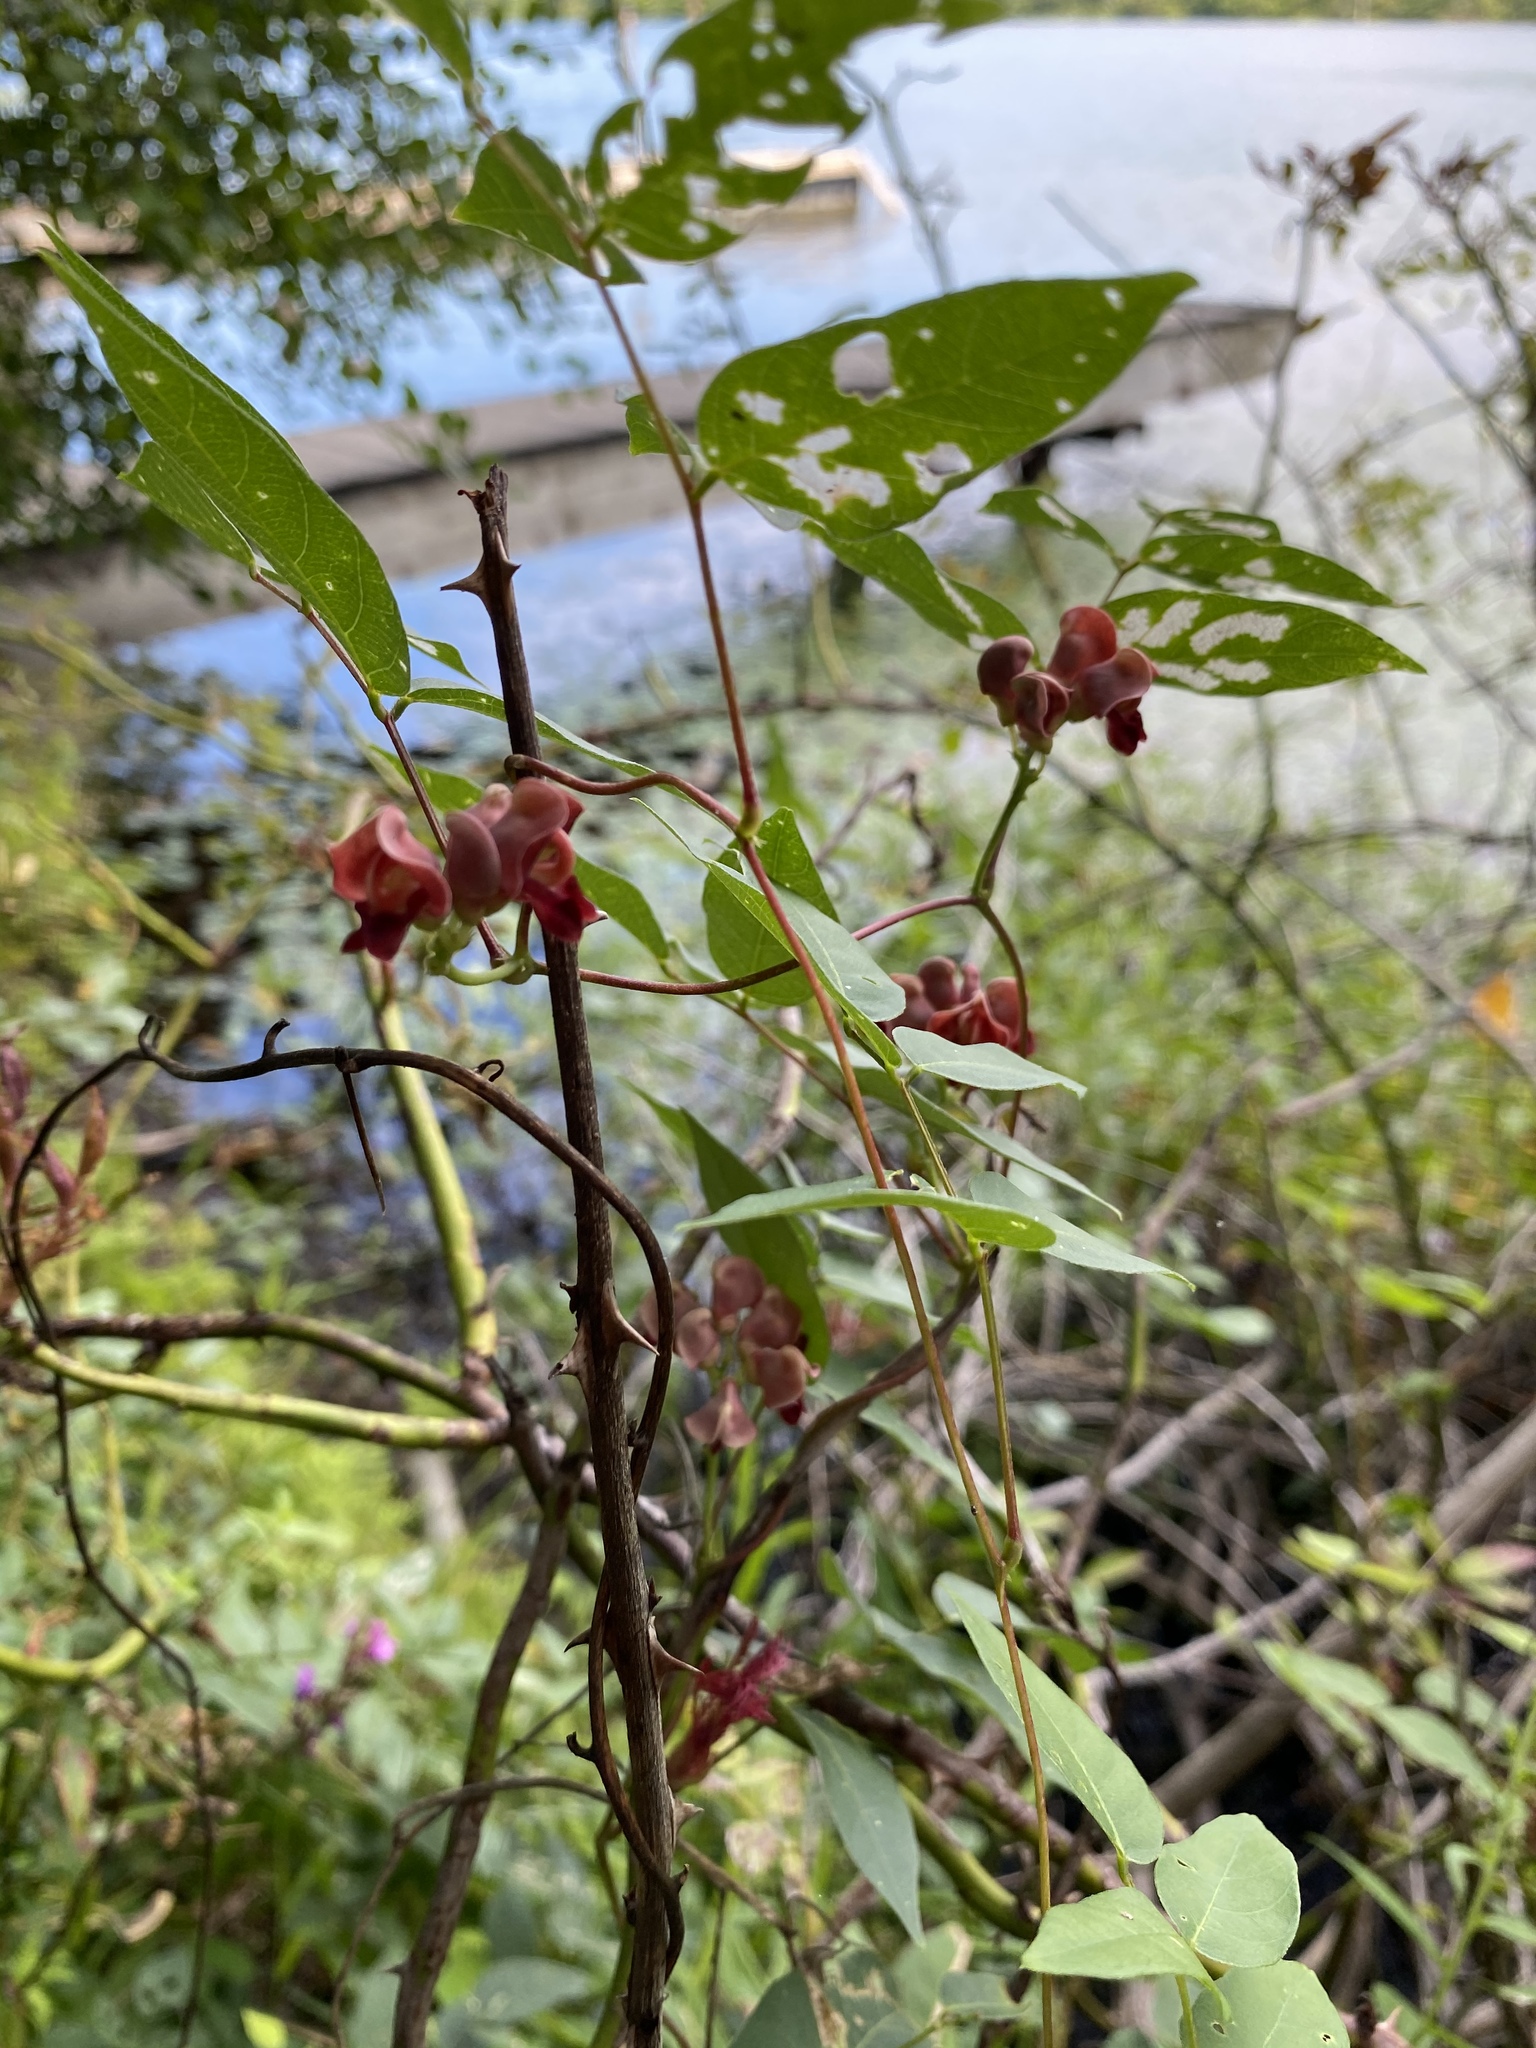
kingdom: Plantae
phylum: Tracheophyta
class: Magnoliopsida
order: Fabales
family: Fabaceae
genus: Apios
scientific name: Apios americana
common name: American potato-bean
